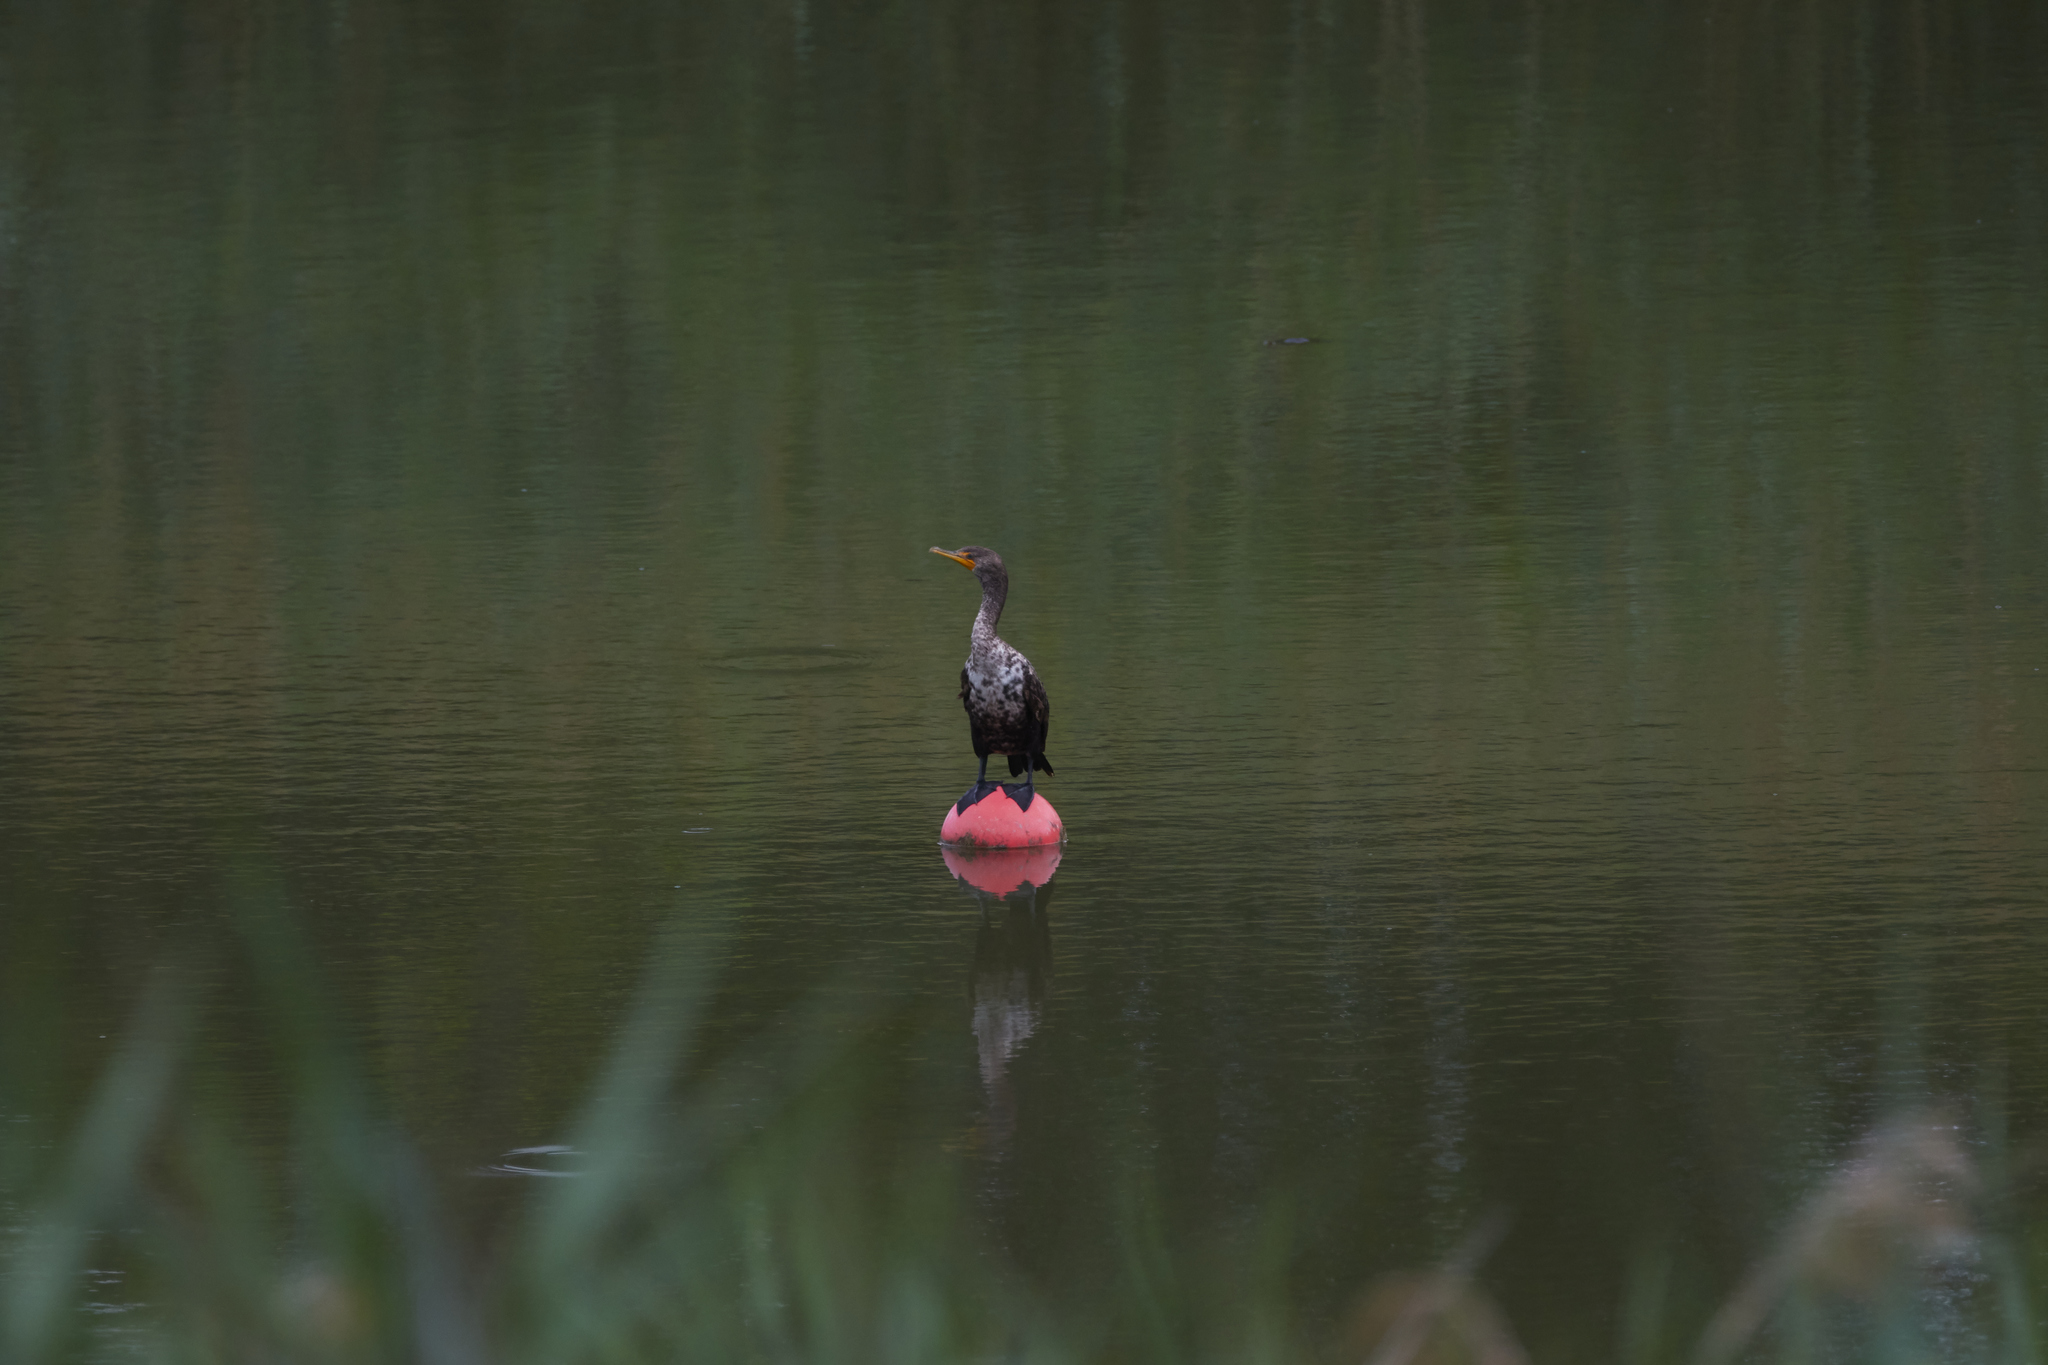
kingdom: Animalia
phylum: Chordata
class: Aves
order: Suliformes
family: Phalacrocoracidae
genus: Phalacrocorax
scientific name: Phalacrocorax auritus
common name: Double-crested cormorant
